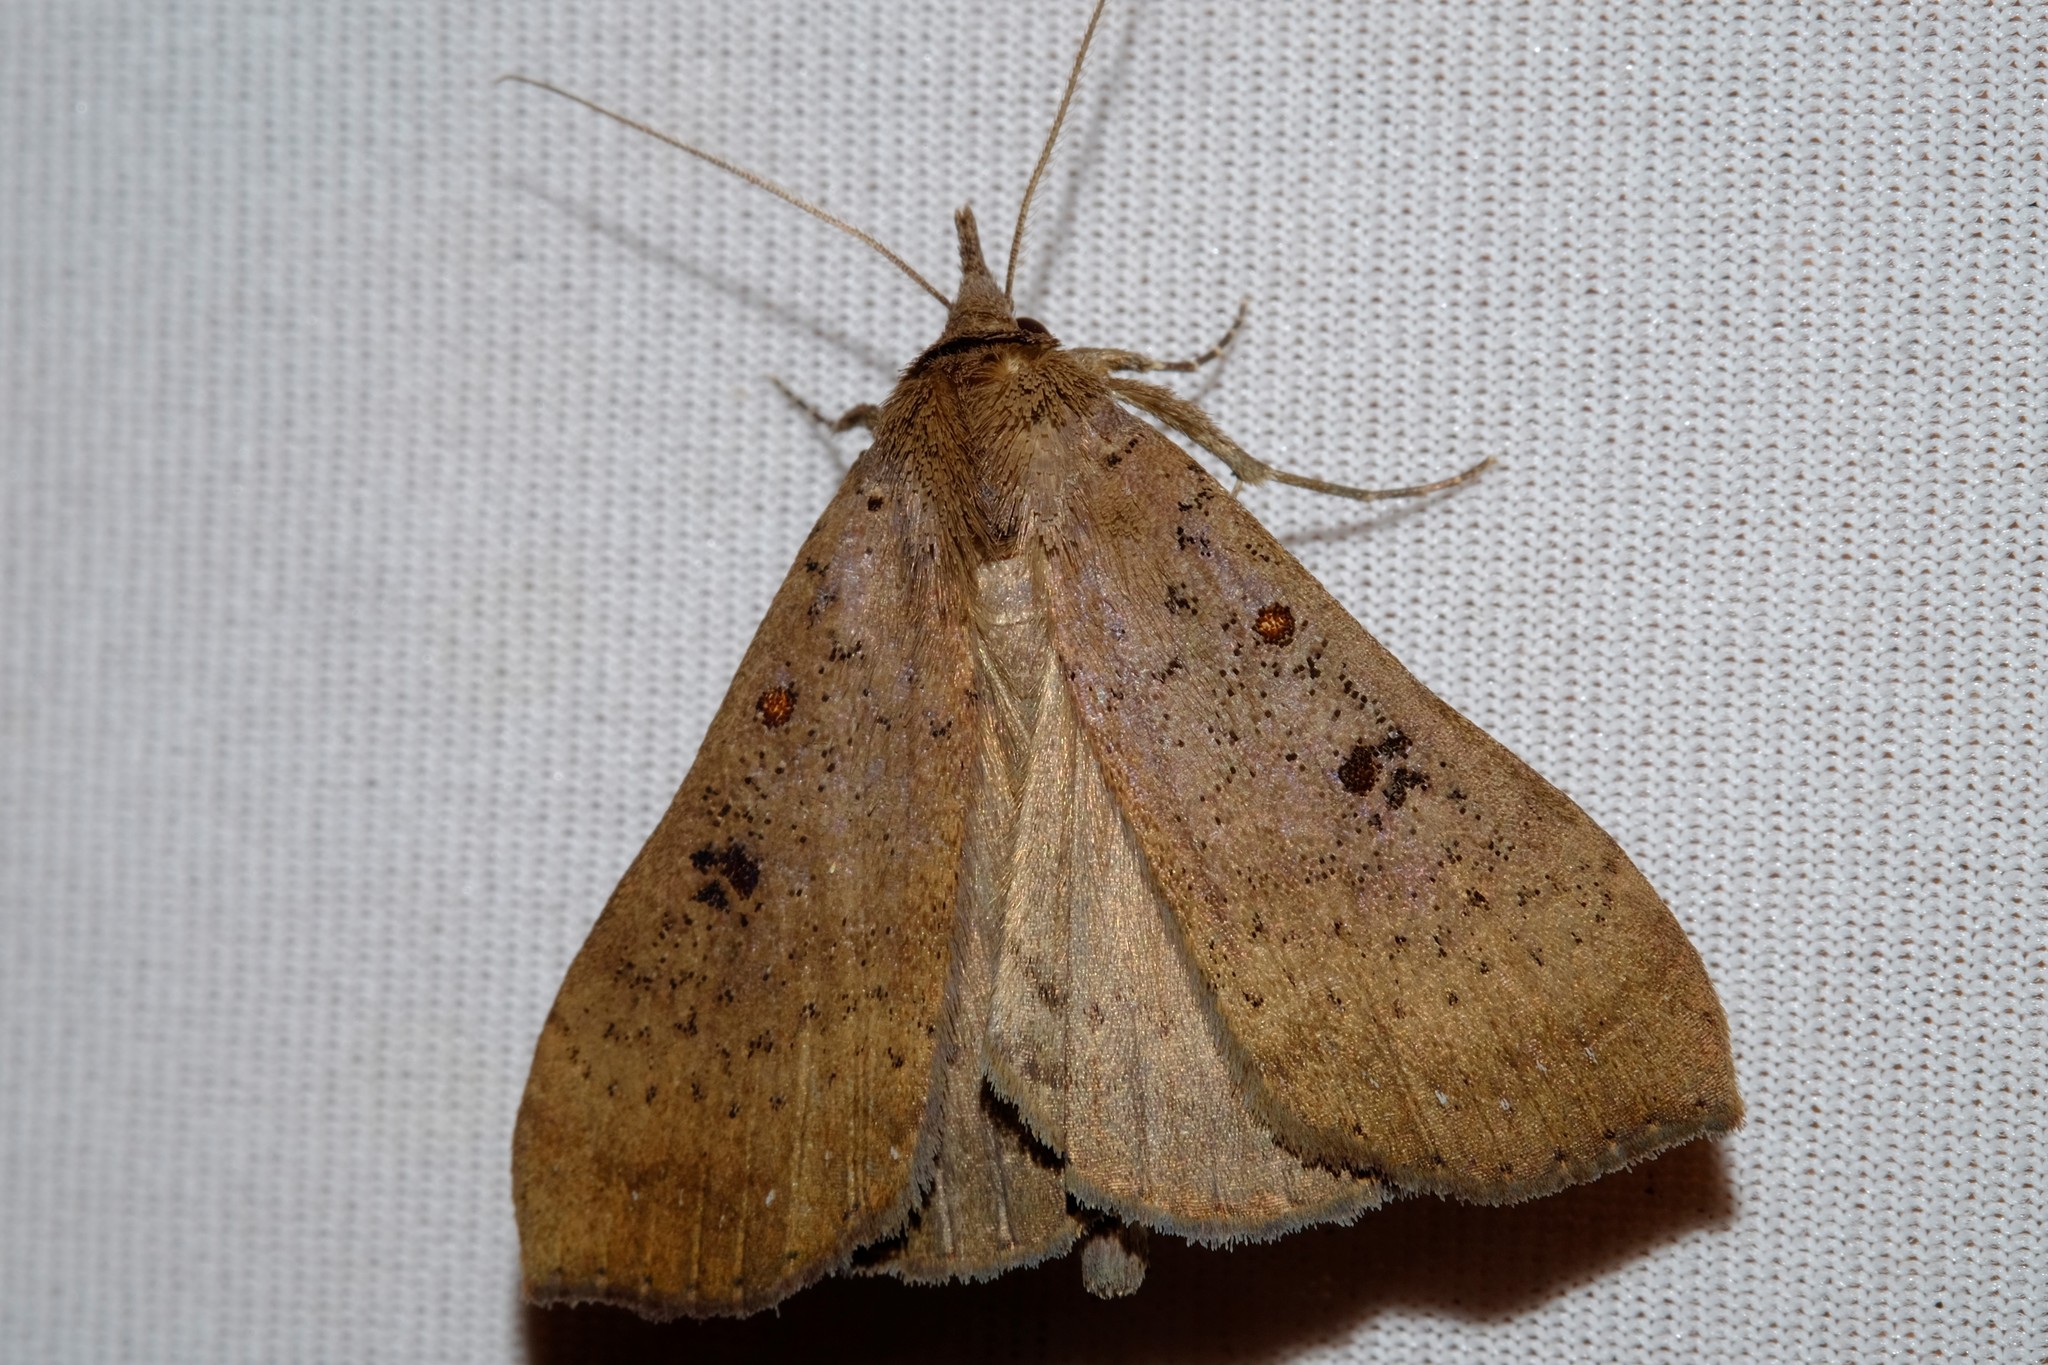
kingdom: Animalia
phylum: Arthropoda
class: Insecta
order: Lepidoptera
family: Erebidae
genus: Rhapsa
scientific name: Rhapsa suscitatalis
